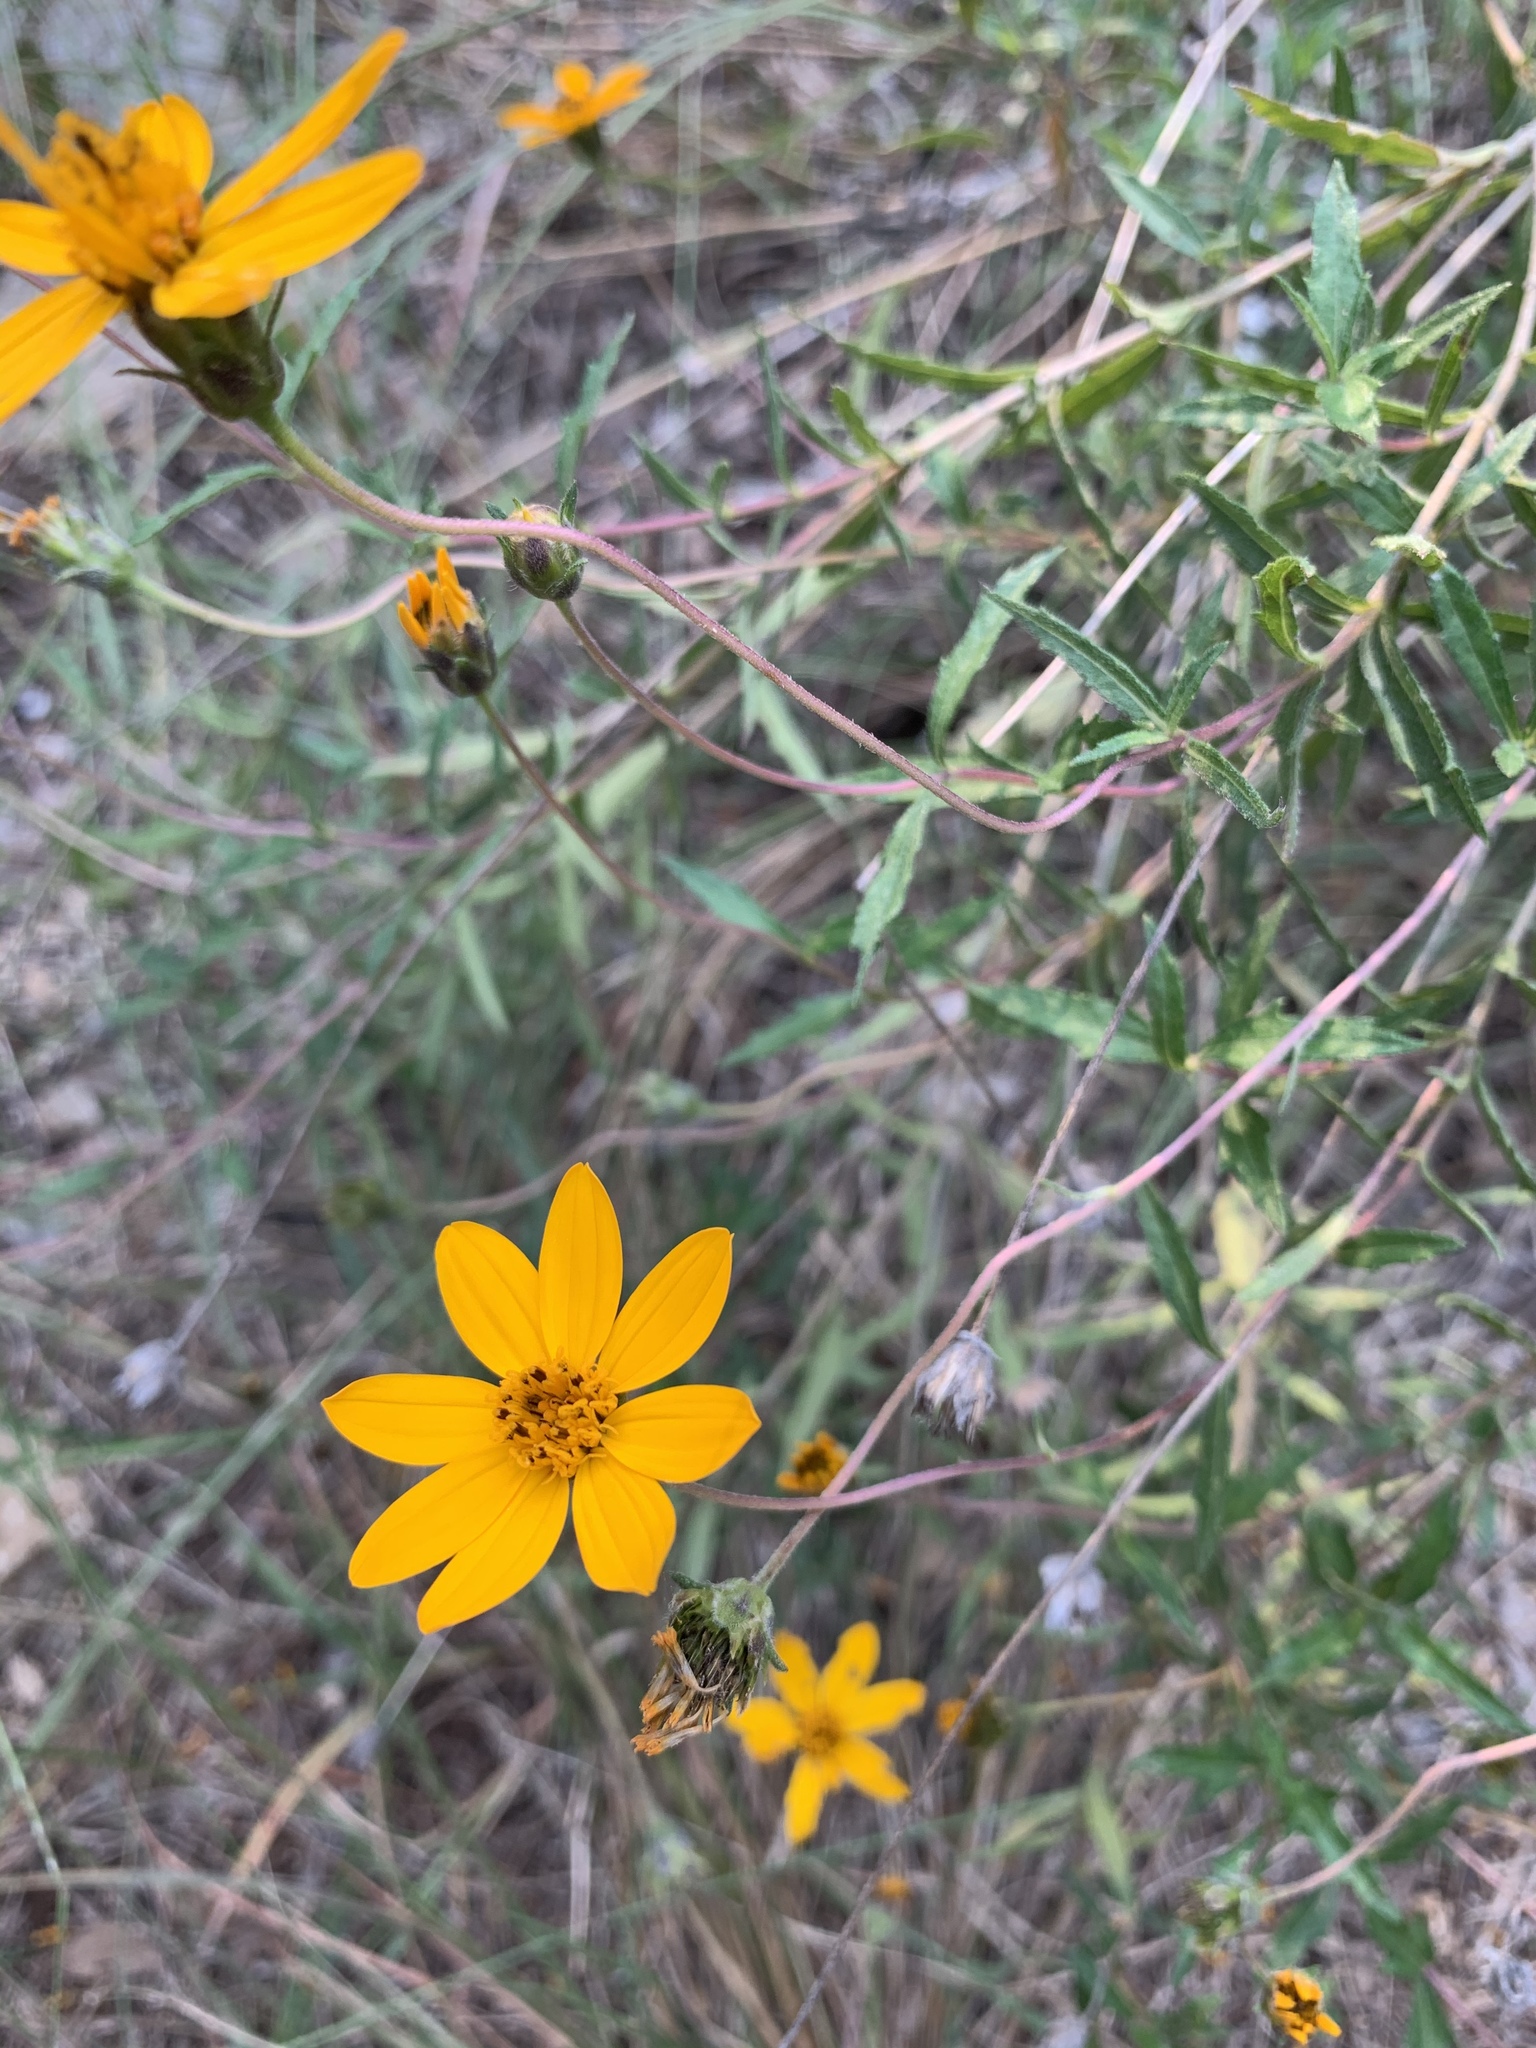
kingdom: Plantae
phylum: Tracheophyta
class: Magnoliopsida
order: Asterales
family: Asteraceae
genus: Wedelia
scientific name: Wedelia acapulcensis
